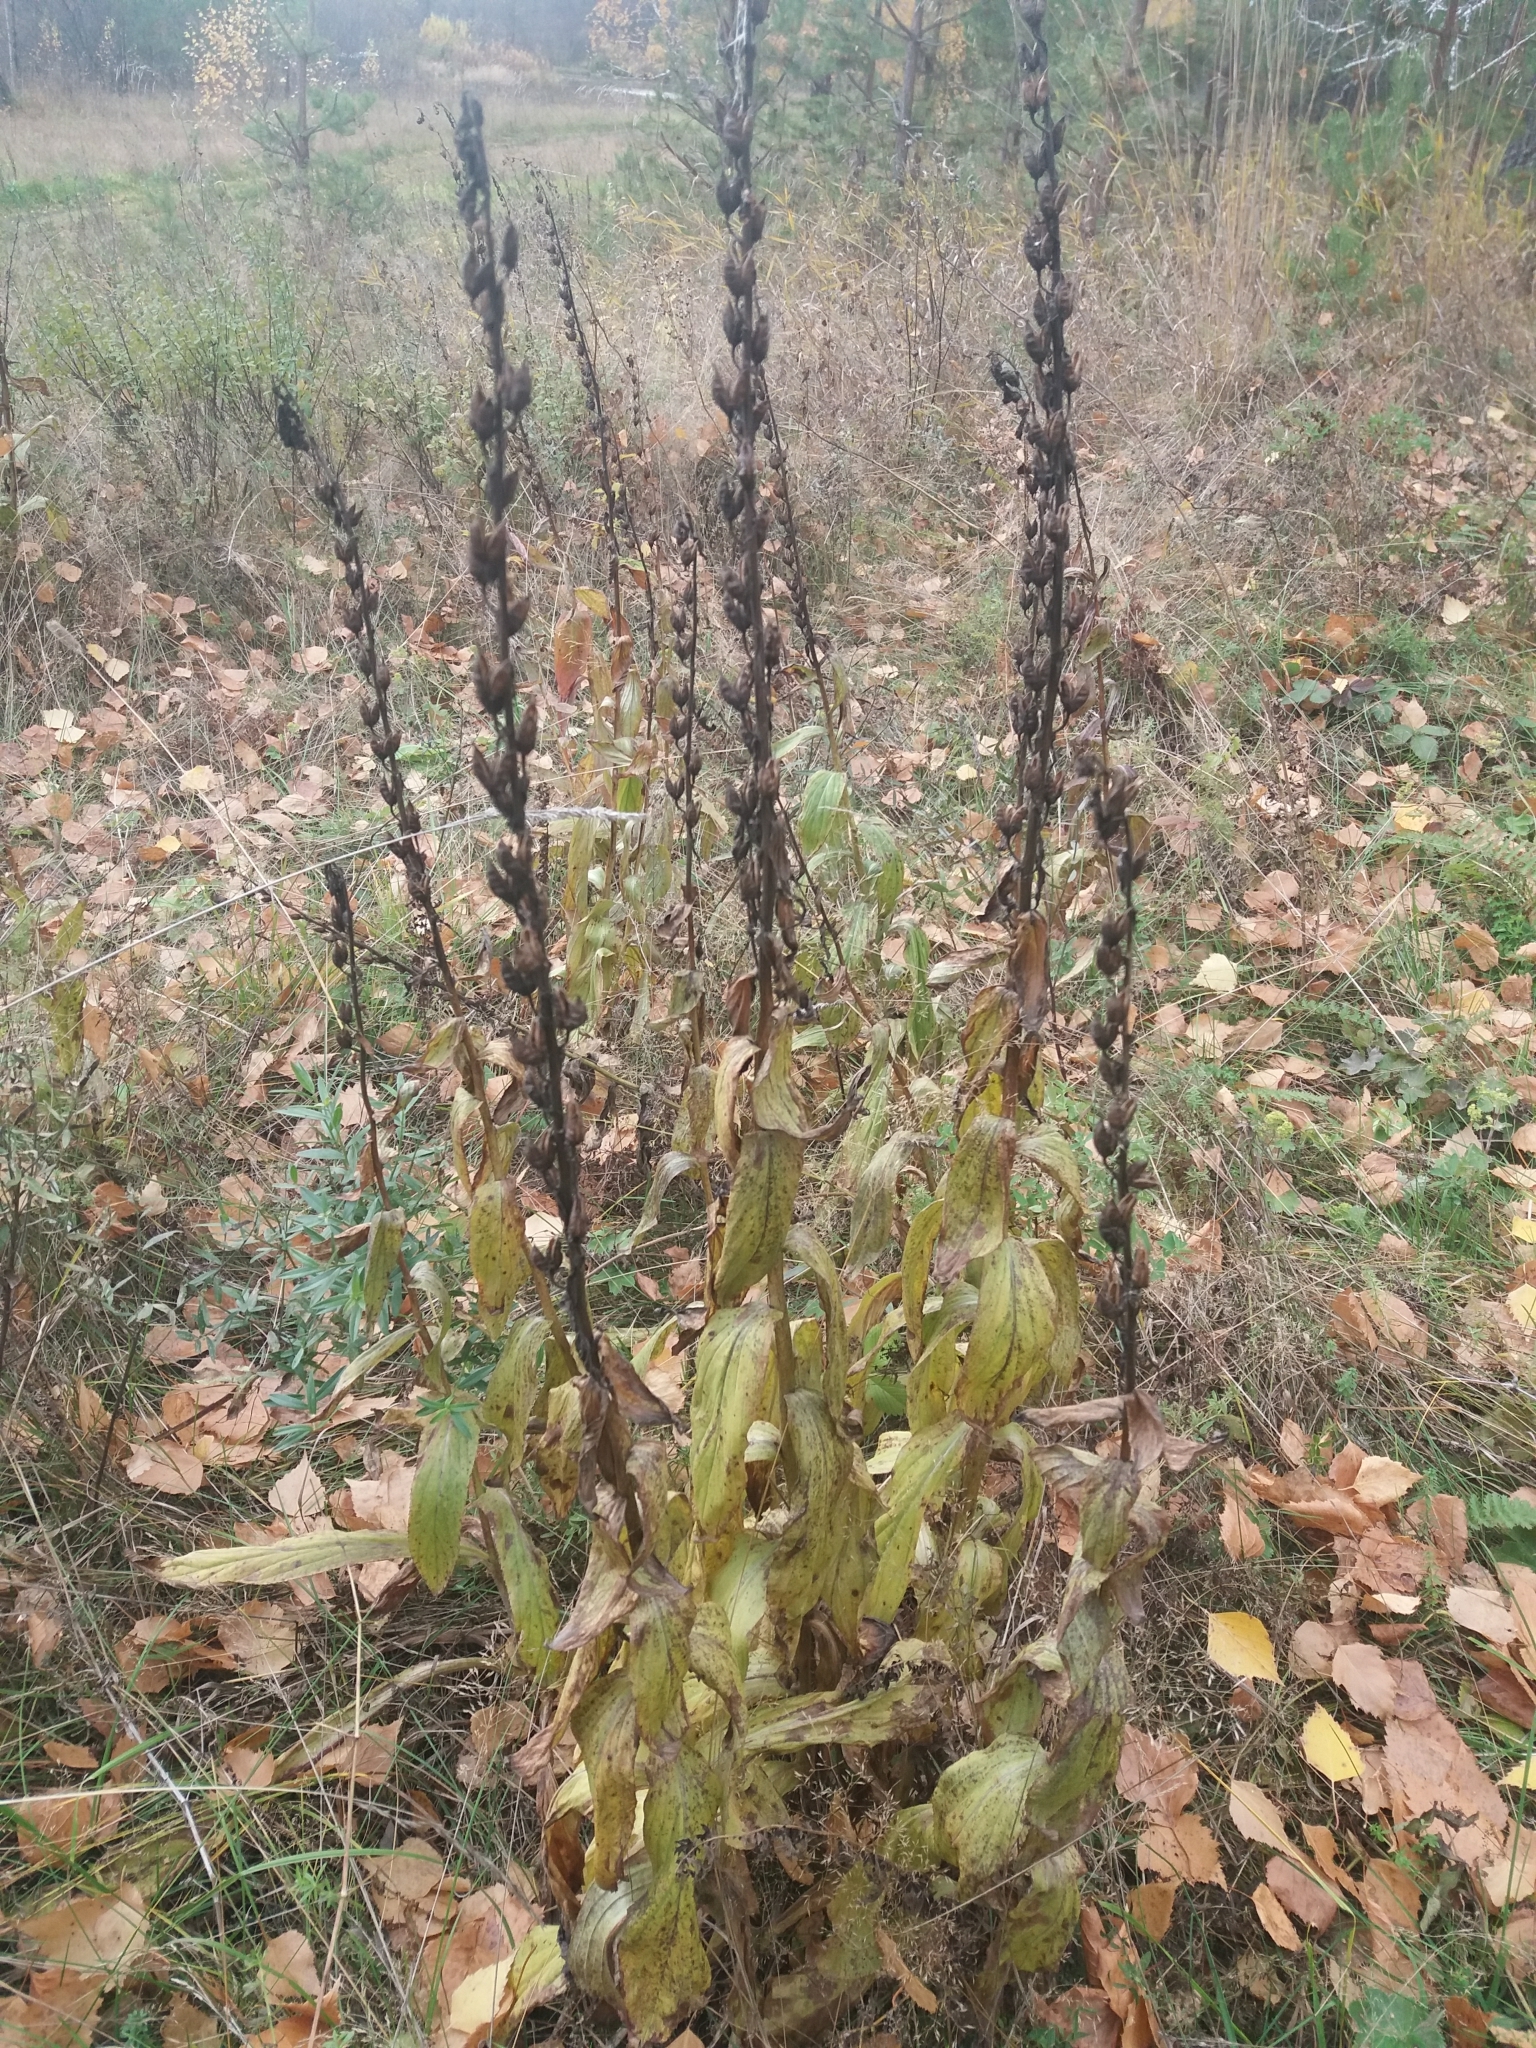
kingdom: Plantae
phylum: Tracheophyta
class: Magnoliopsida
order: Lamiales
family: Plantaginaceae
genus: Digitalis
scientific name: Digitalis grandiflora
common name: Yellow foxglove
